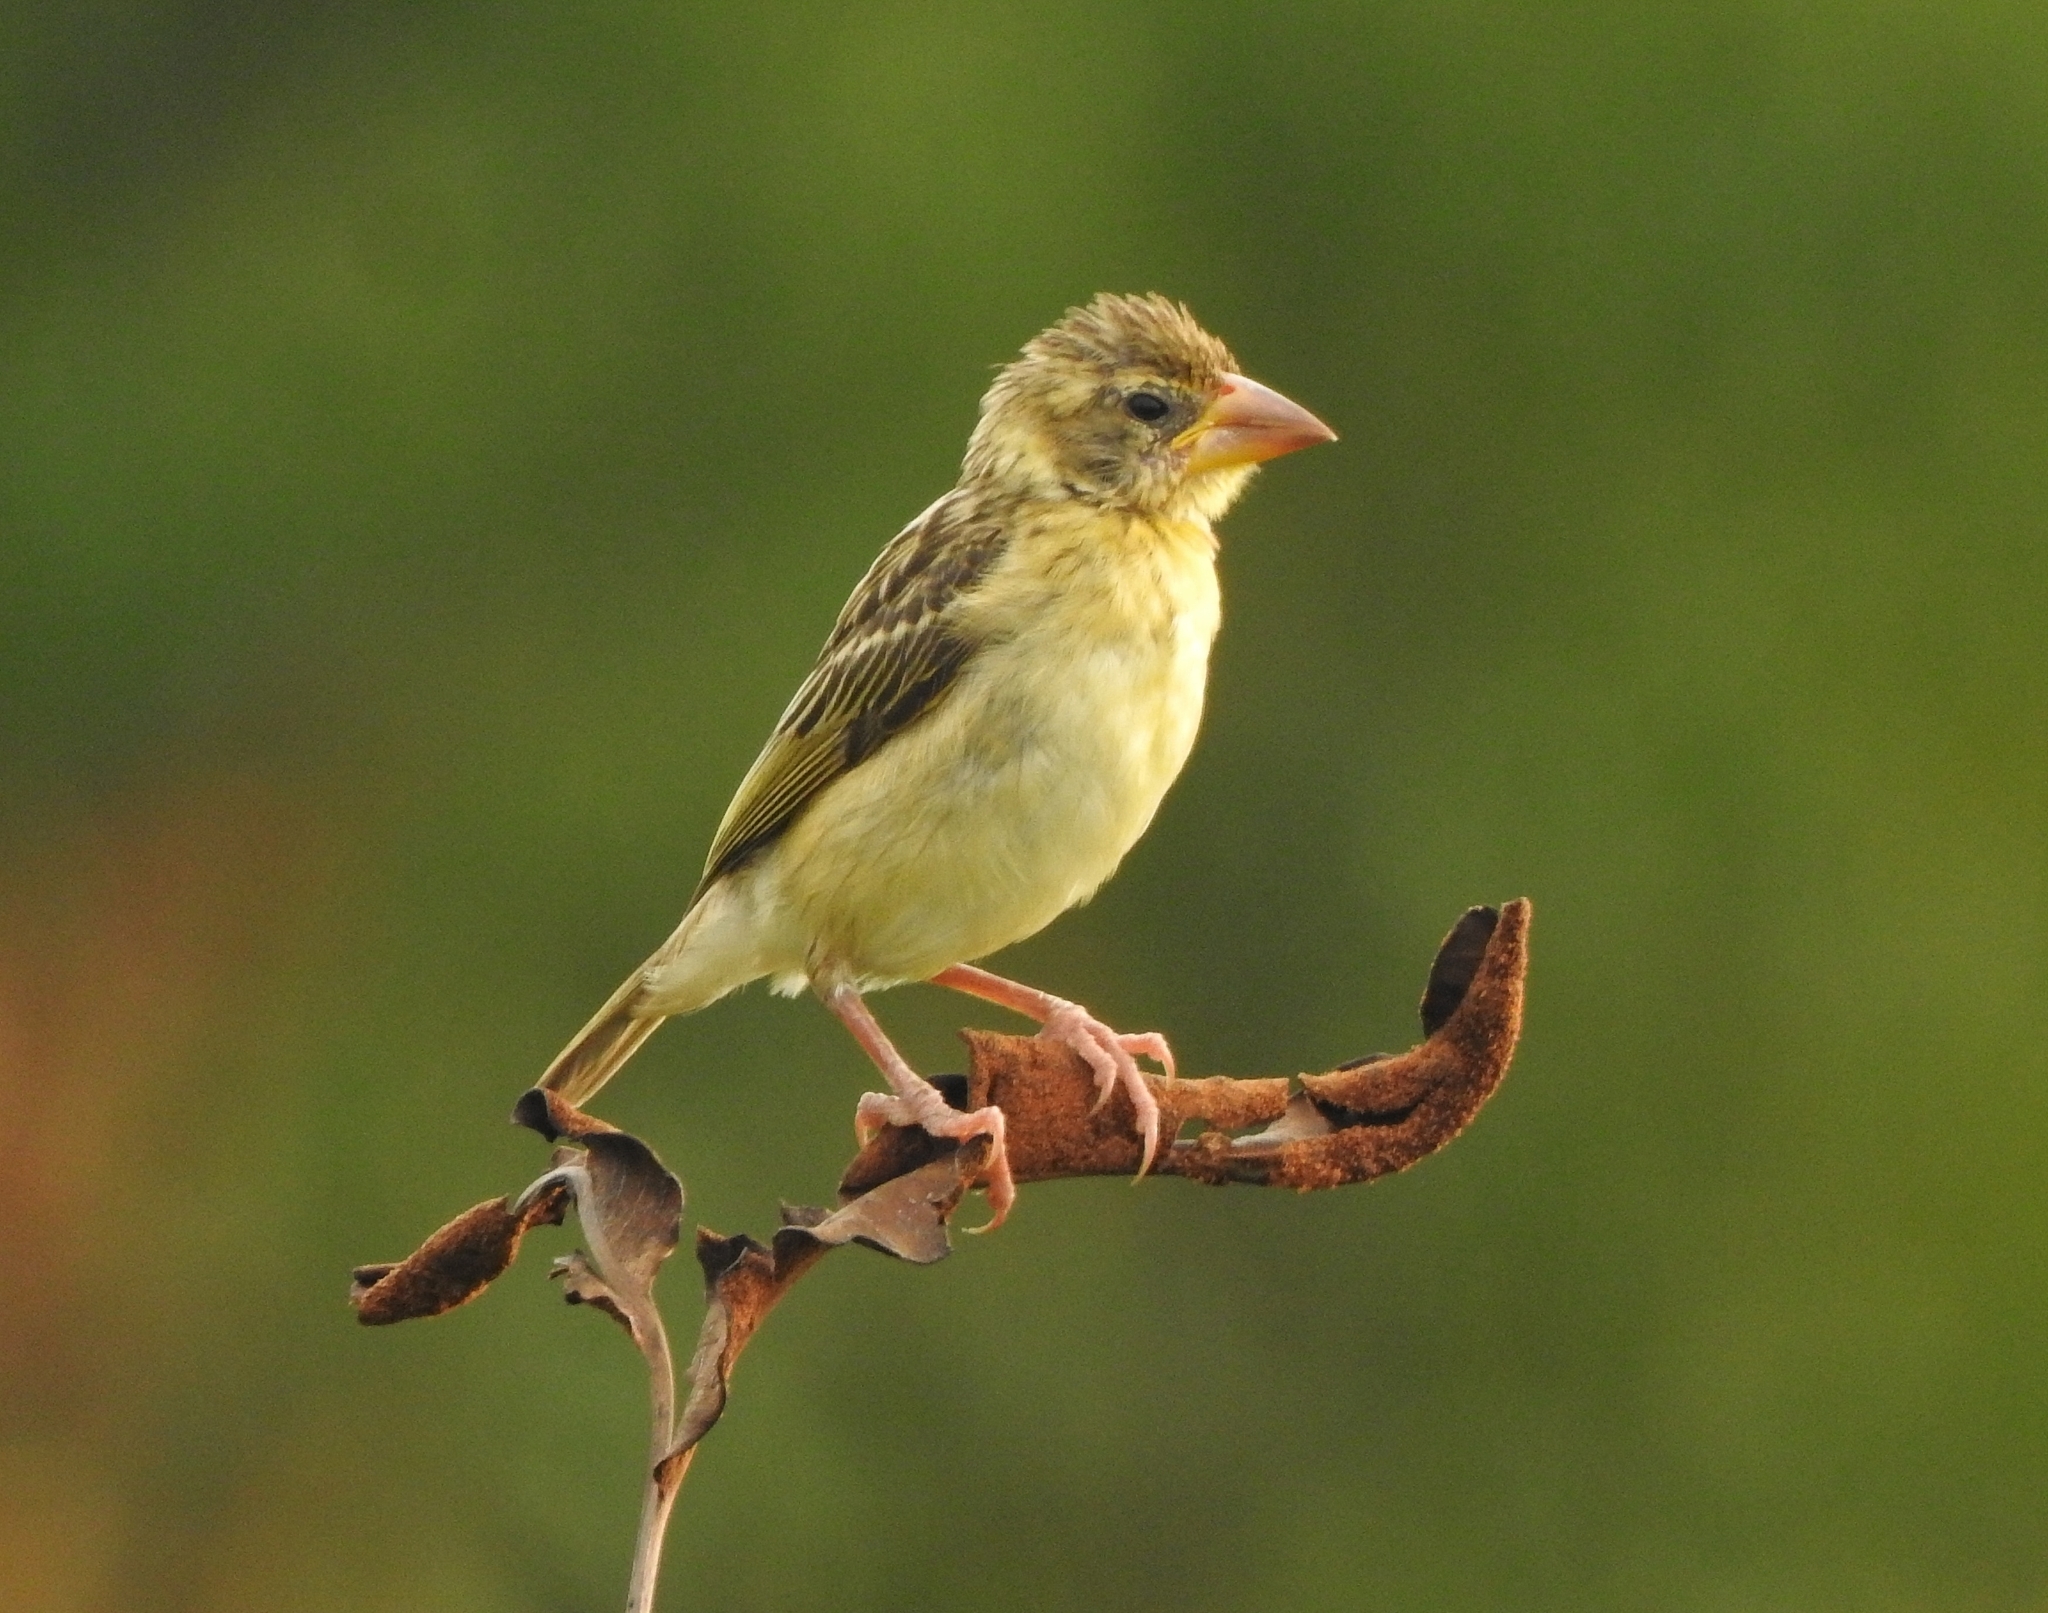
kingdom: Animalia
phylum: Chordata
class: Aves
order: Passeriformes
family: Ploceidae
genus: Ploceus
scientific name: Ploceus philippinus
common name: Baya weaver
